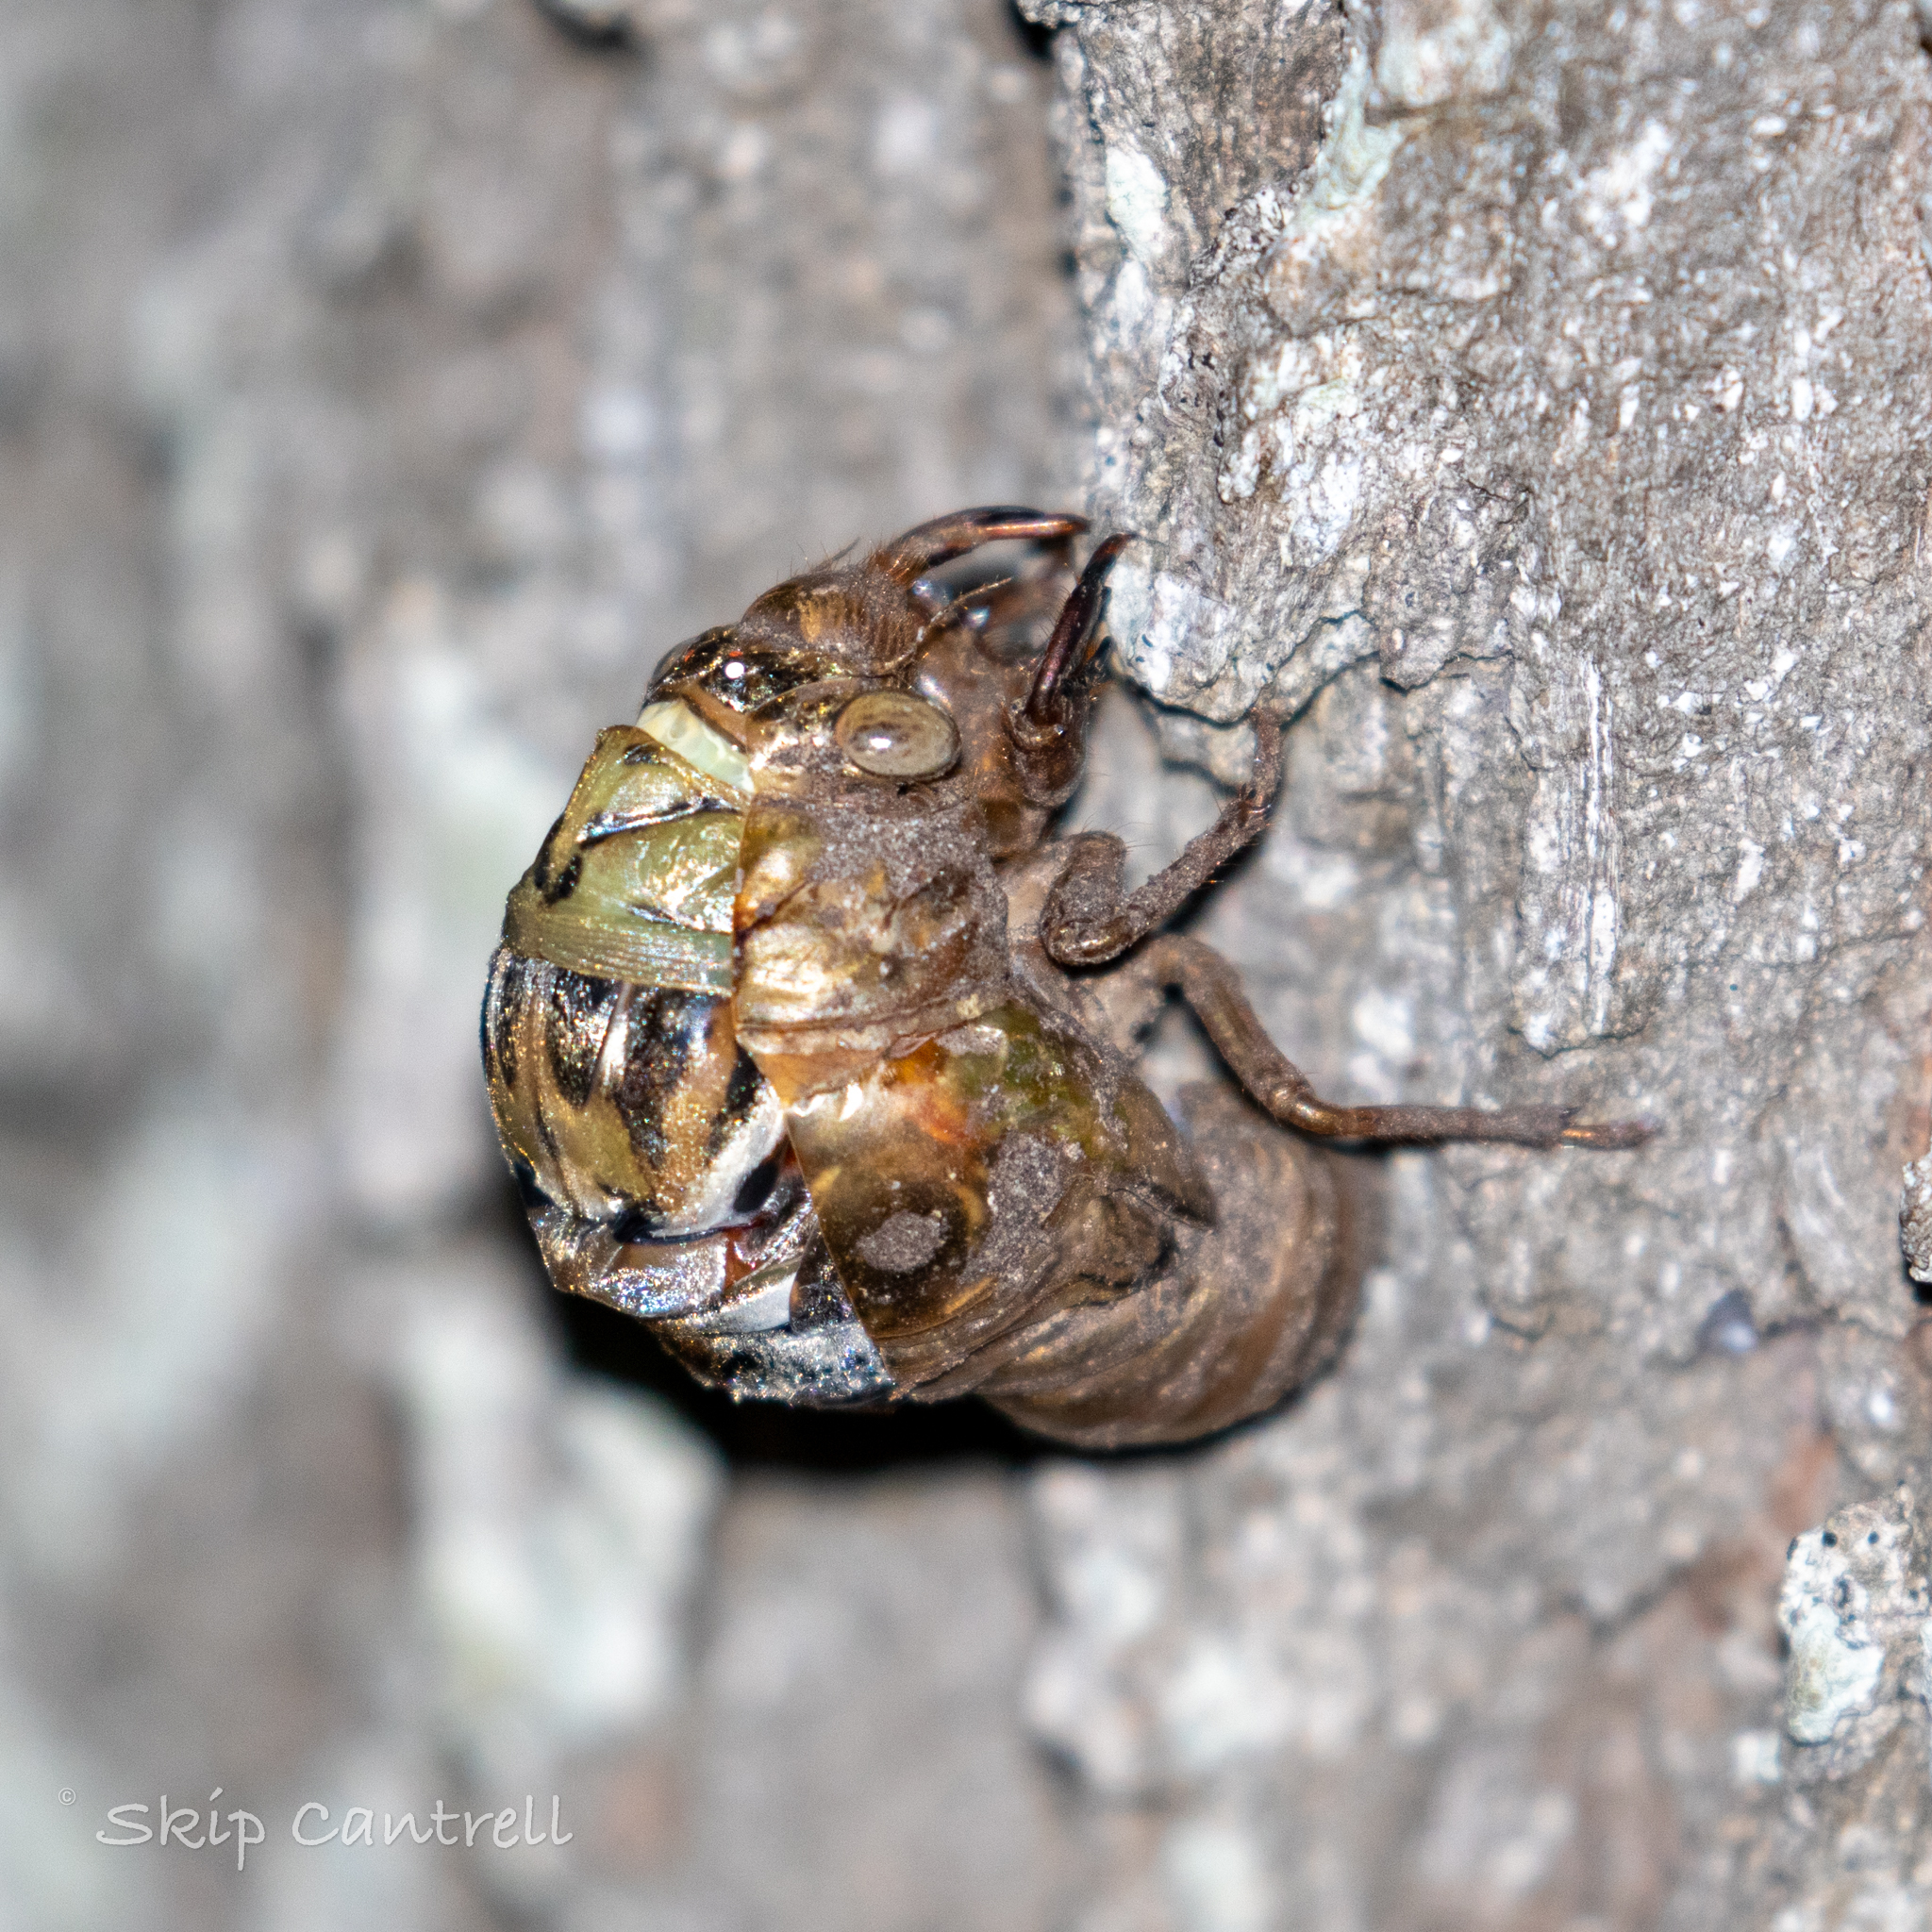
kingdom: Animalia
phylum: Arthropoda
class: Insecta
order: Hemiptera
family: Cicadidae
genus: Megatibicen
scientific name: Megatibicen resh
